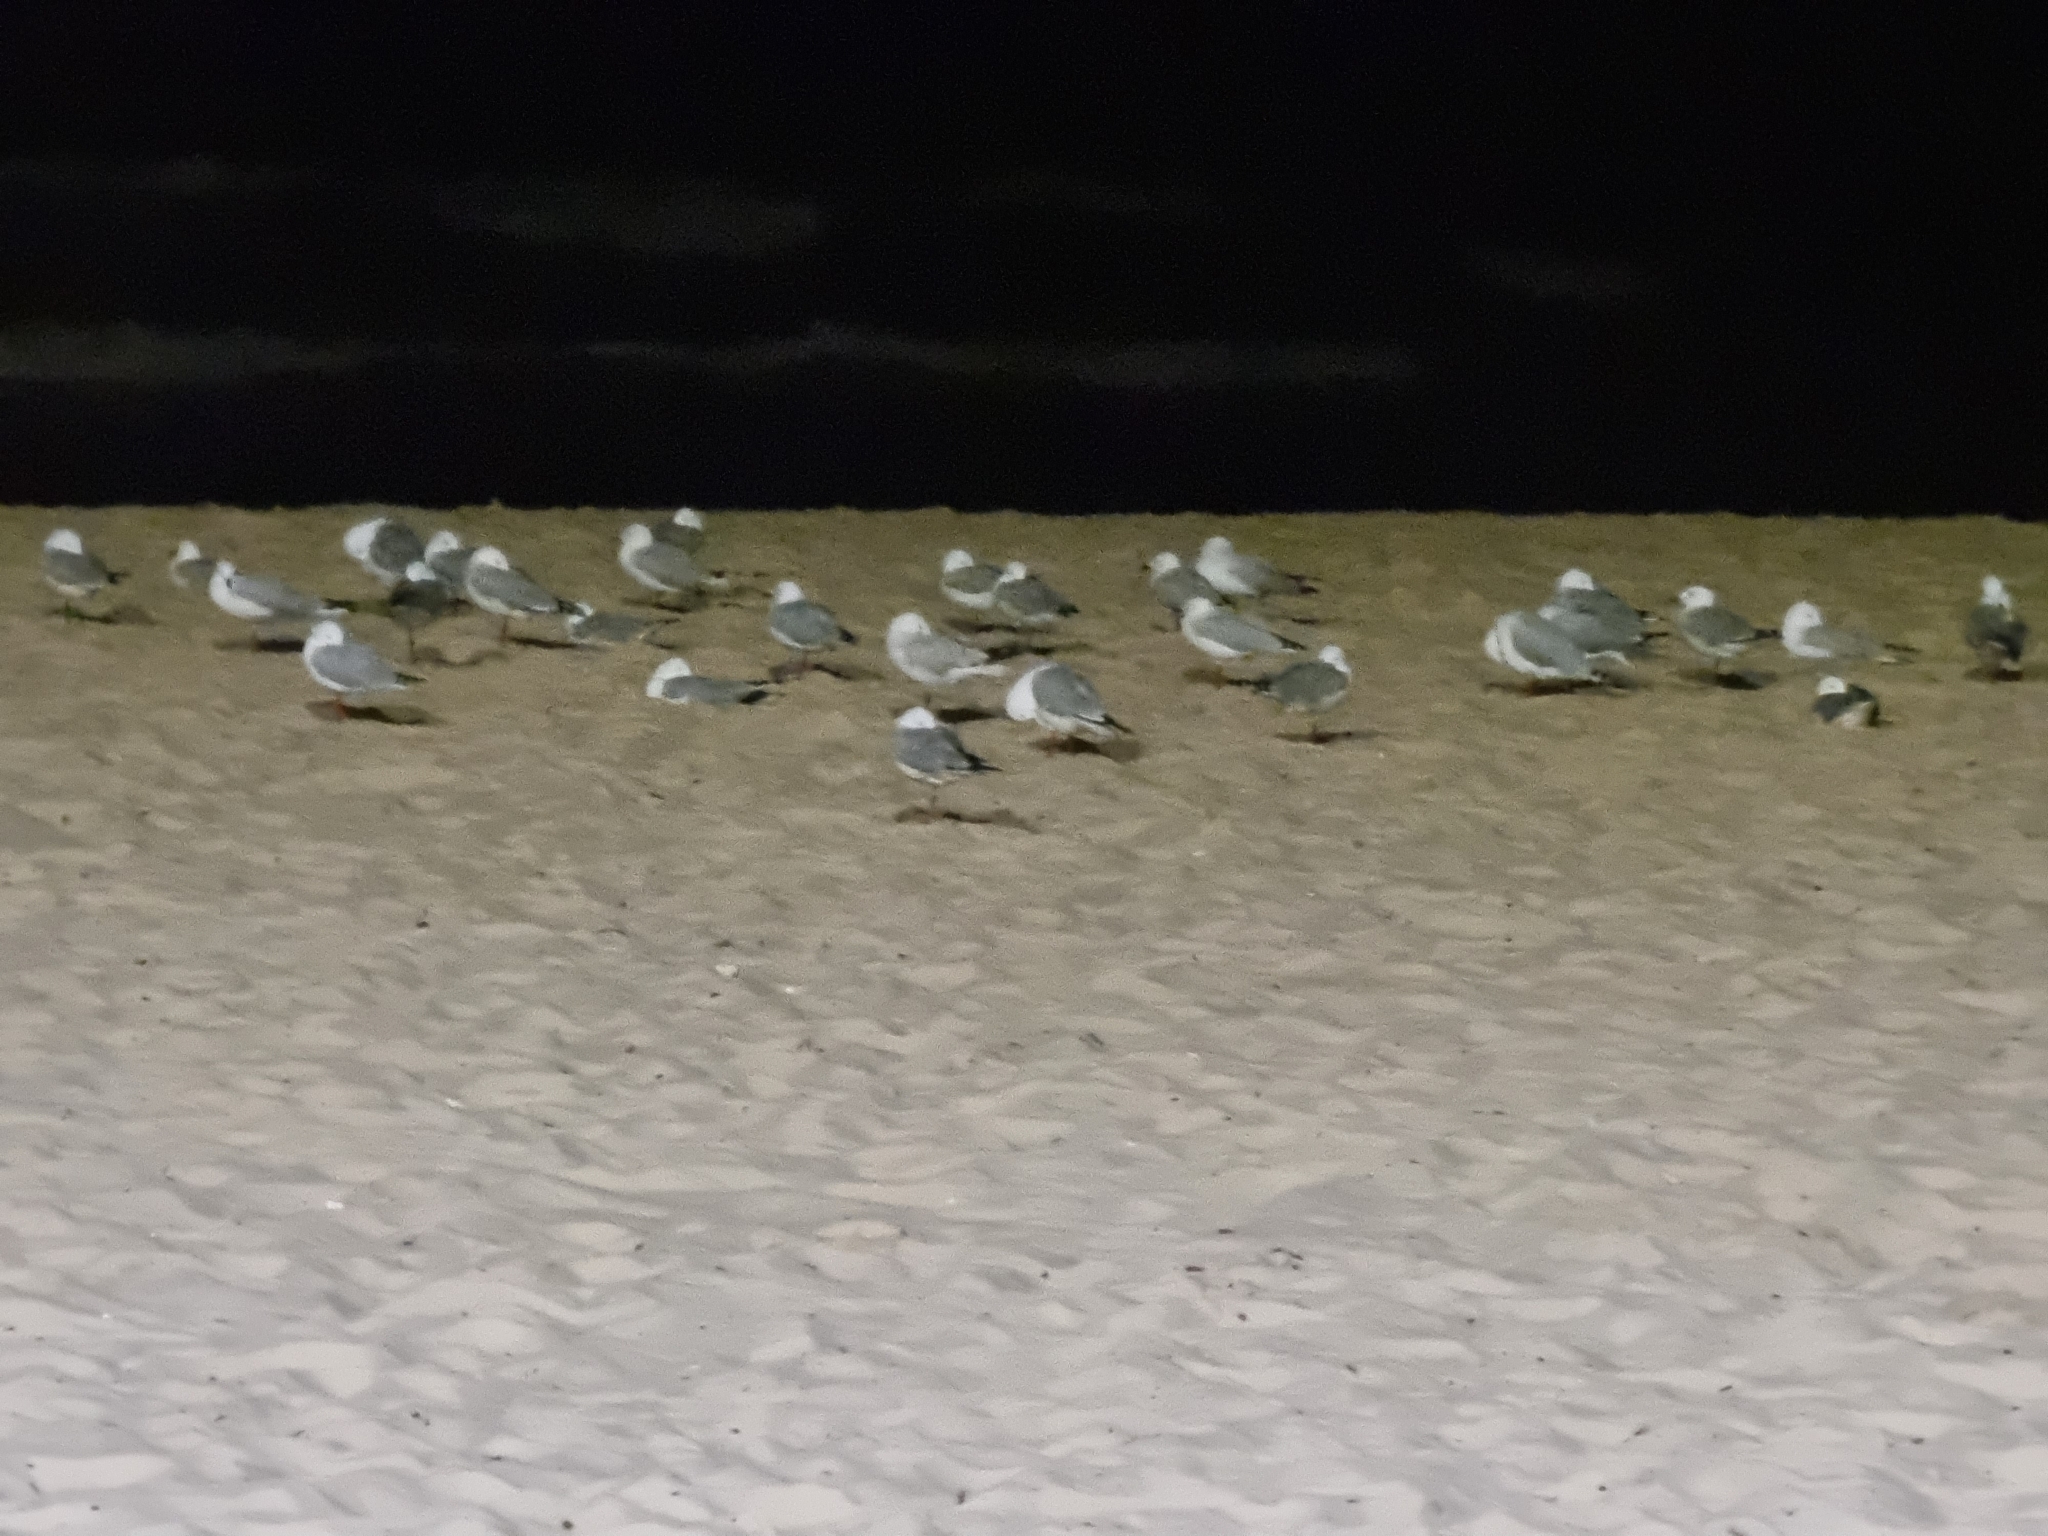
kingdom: Animalia
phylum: Chordata
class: Aves
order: Charadriiformes
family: Laridae
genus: Chroicocephalus
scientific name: Chroicocephalus novaehollandiae
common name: Silver gull
